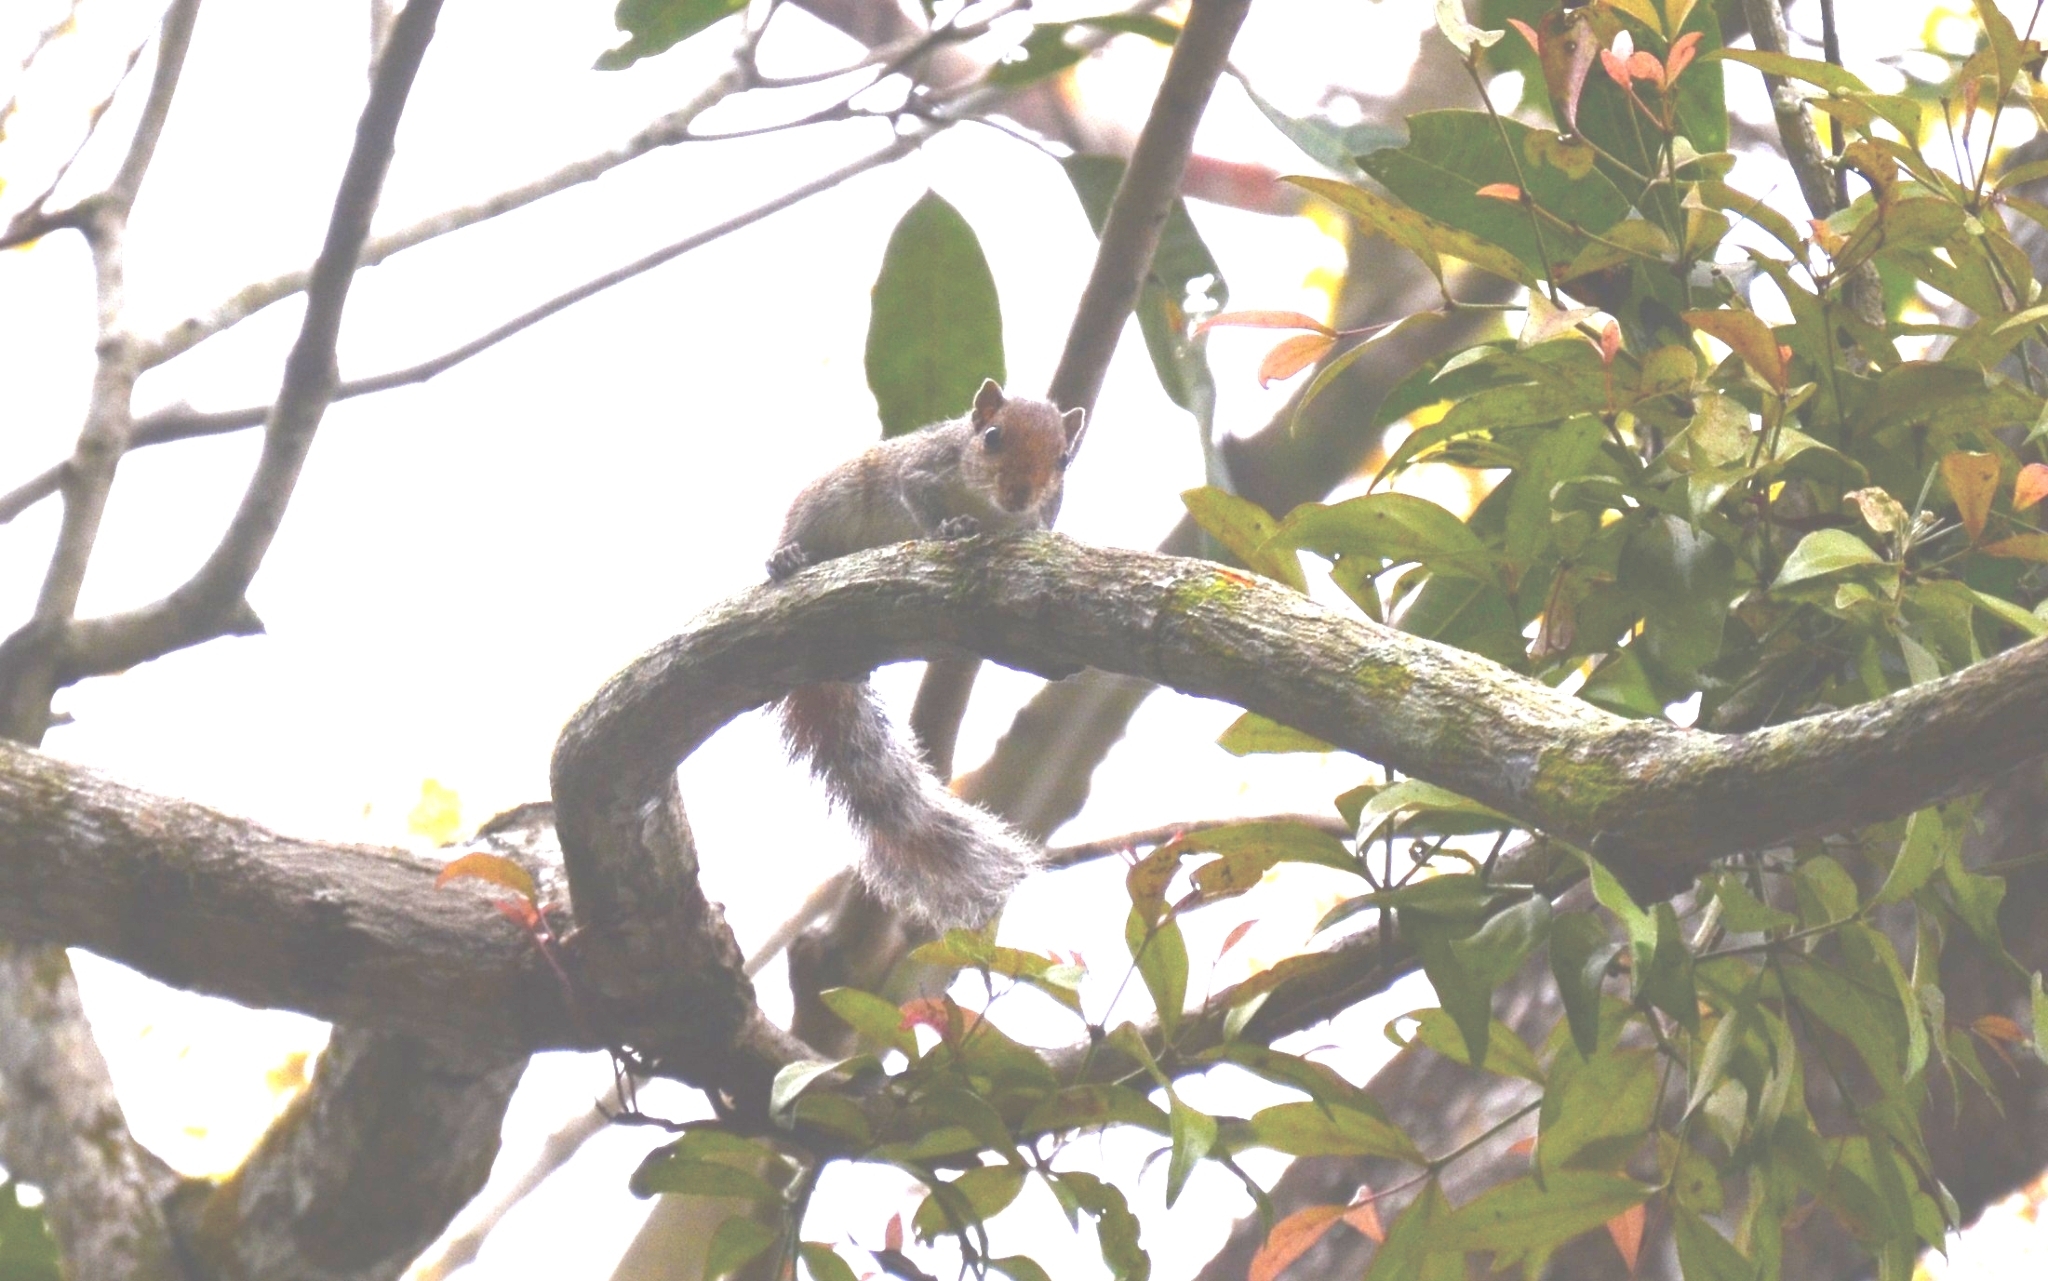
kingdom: Animalia
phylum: Chordata
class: Mammalia
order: Rodentia
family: Sciuridae
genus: Funambulus
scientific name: Funambulus tristriatus
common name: Jungle palm squirrel
